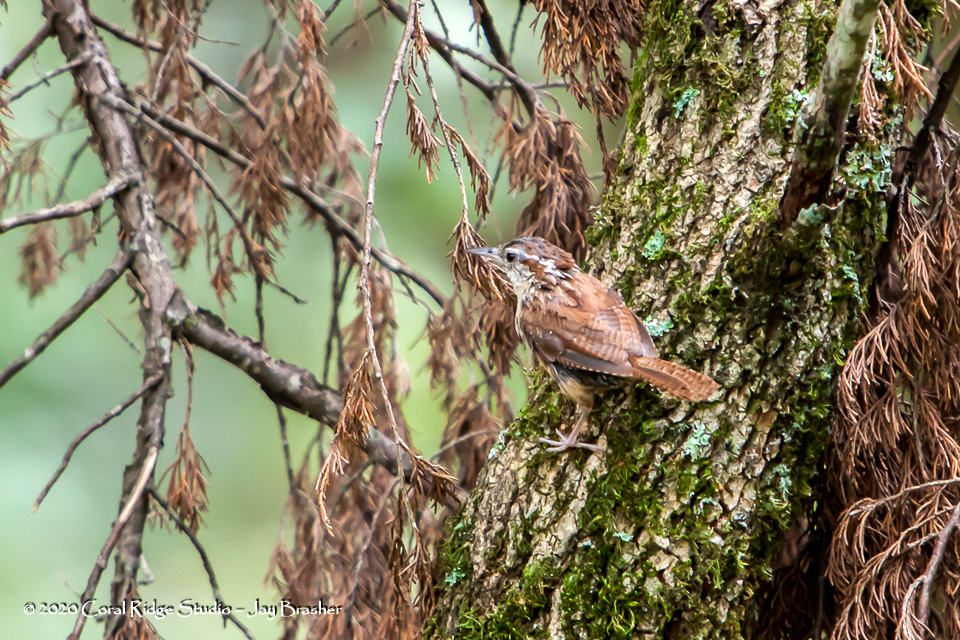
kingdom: Animalia
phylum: Chordata
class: Aves
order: Passeriformes
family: Troglodytidae
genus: Thryothorus
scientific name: Thryothorus ludovicianus
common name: Carolina wren
